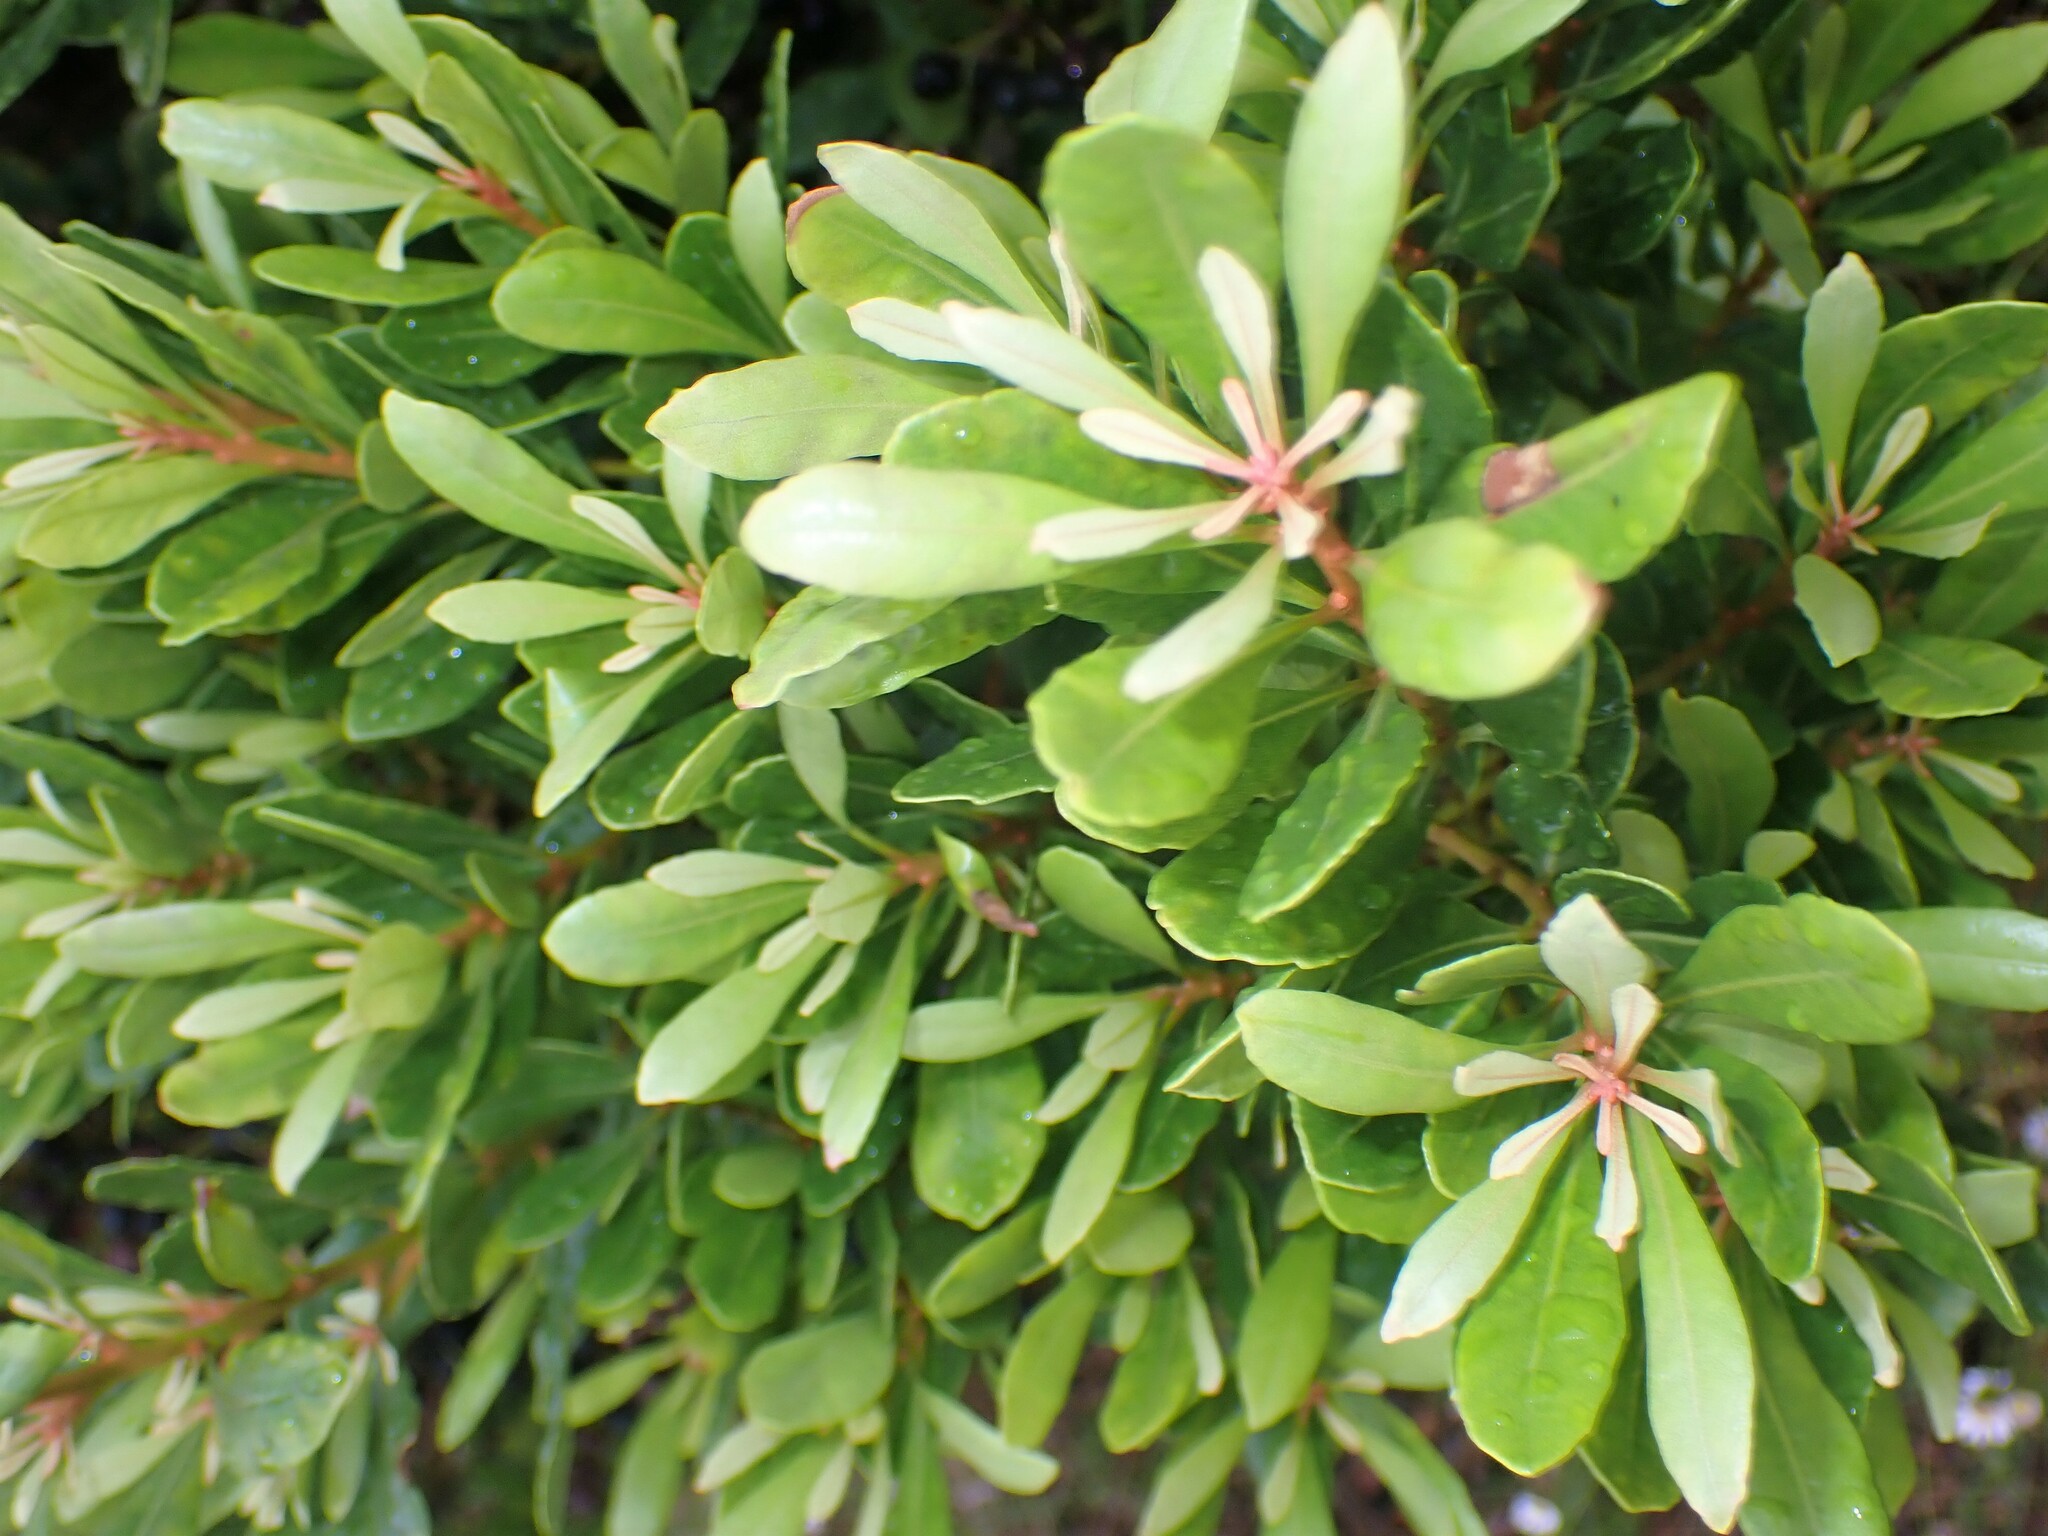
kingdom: Plantae
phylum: Tracheophyta
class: Magnoliopsida
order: Fagales
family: Myricaceae
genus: Morella
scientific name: Morella faya
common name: Firetree
